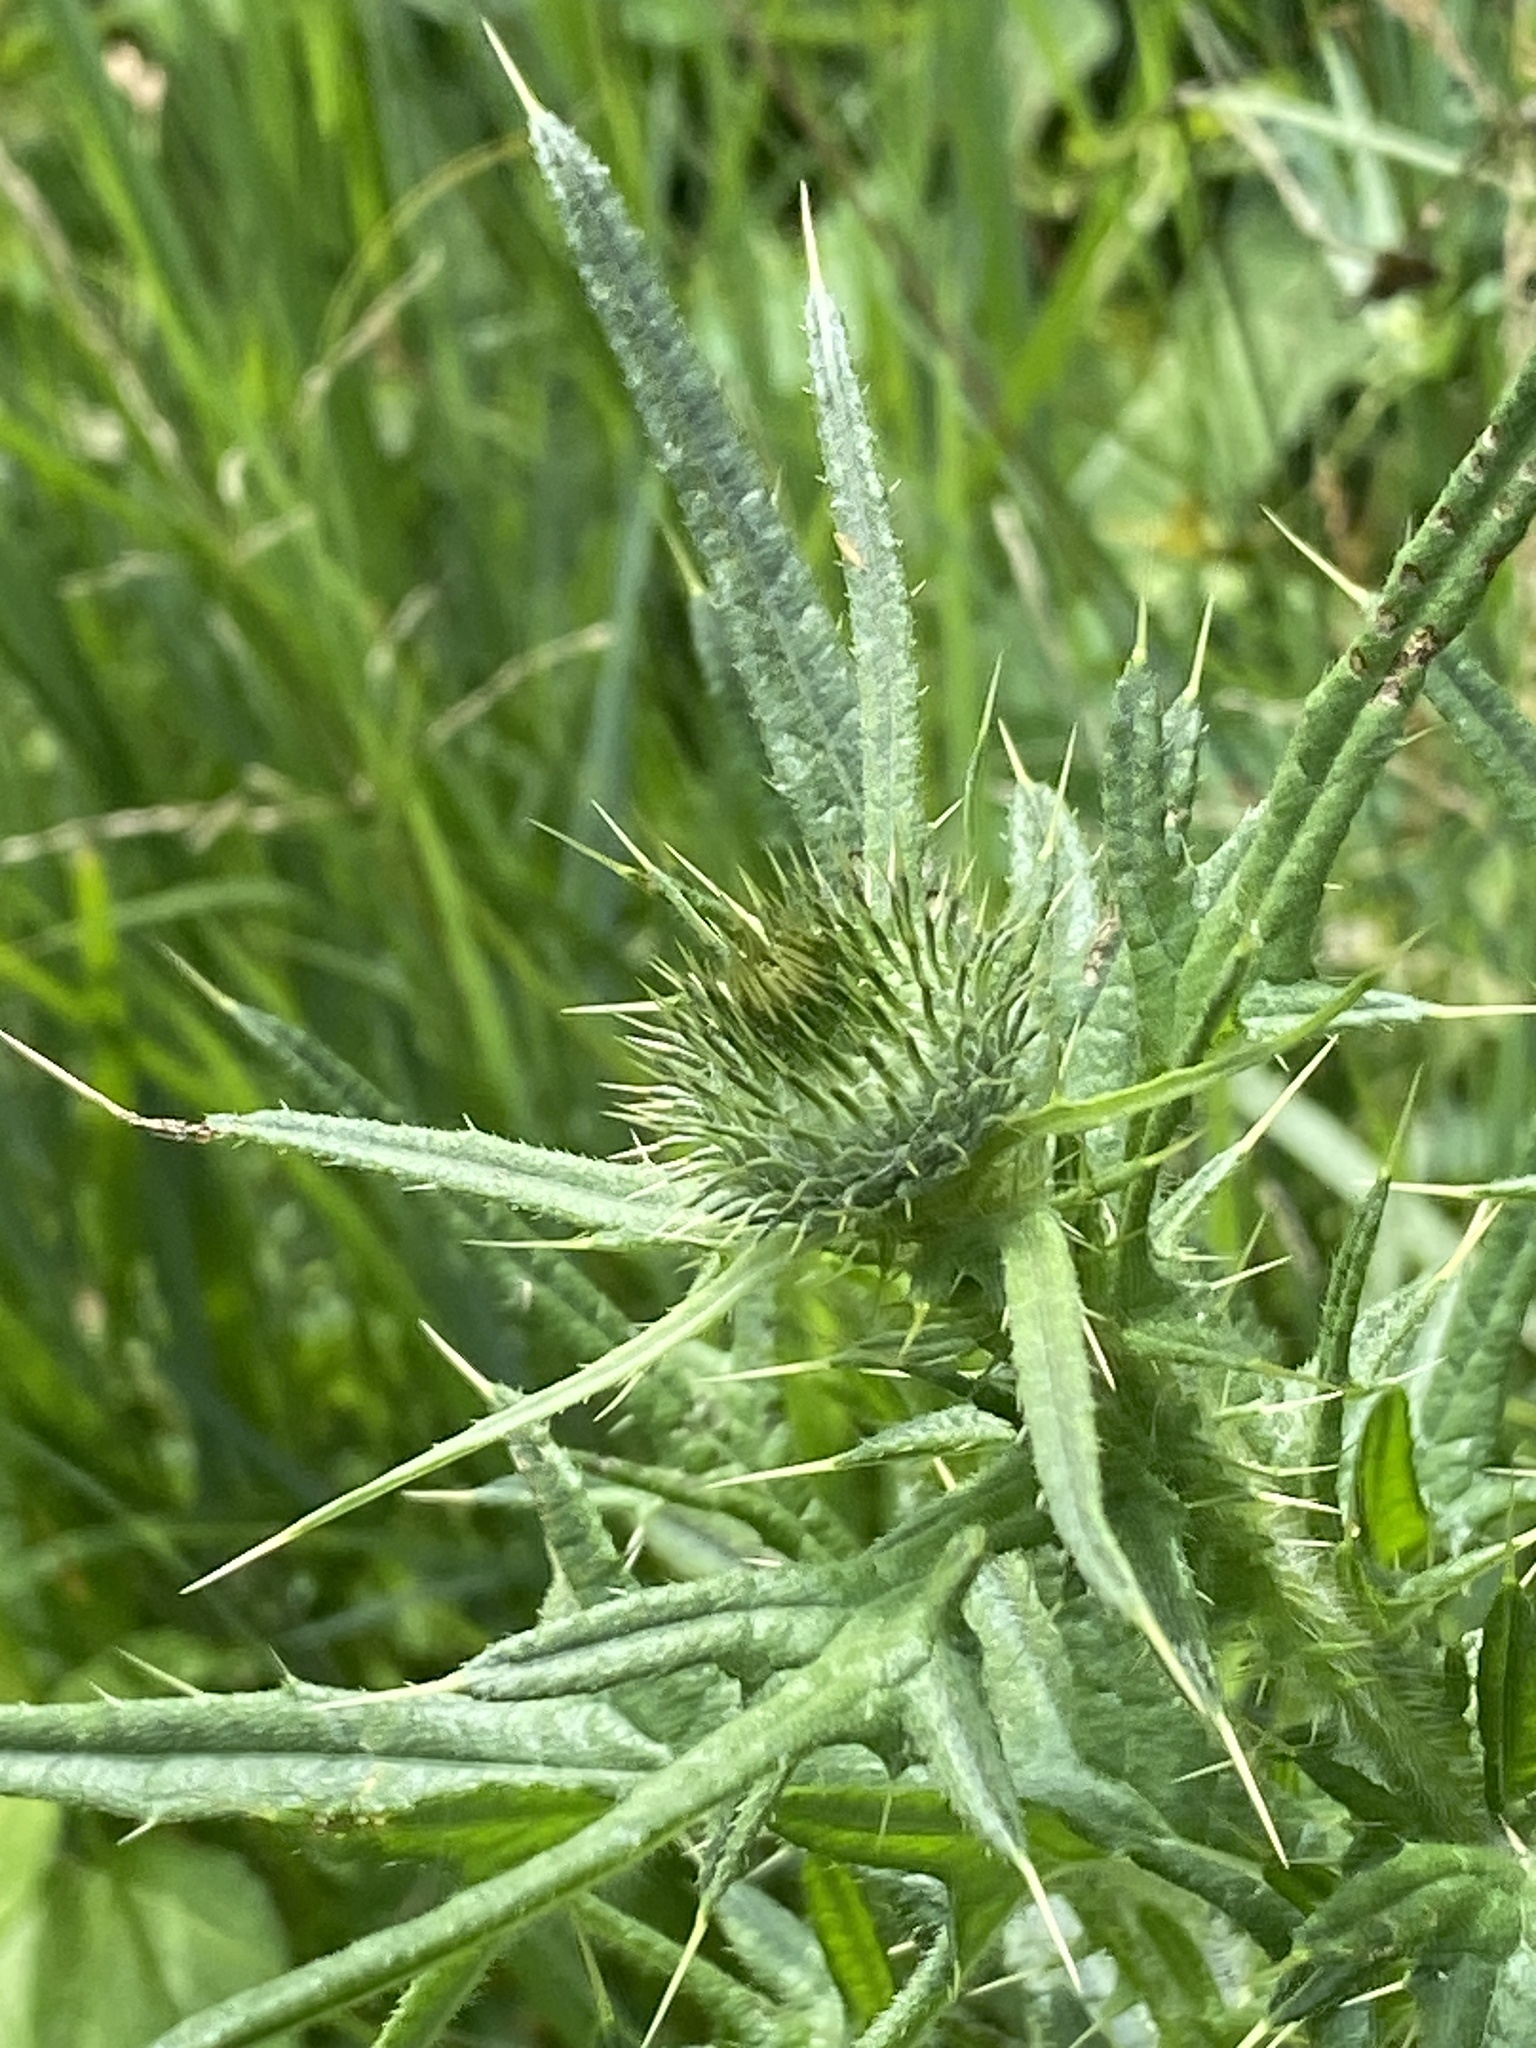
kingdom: Plantae
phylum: Tracheophyta
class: Magnoliopsida
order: Asterales
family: Asteraceae
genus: Cirsium
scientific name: Cirsium vulgare
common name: Bull thistle
